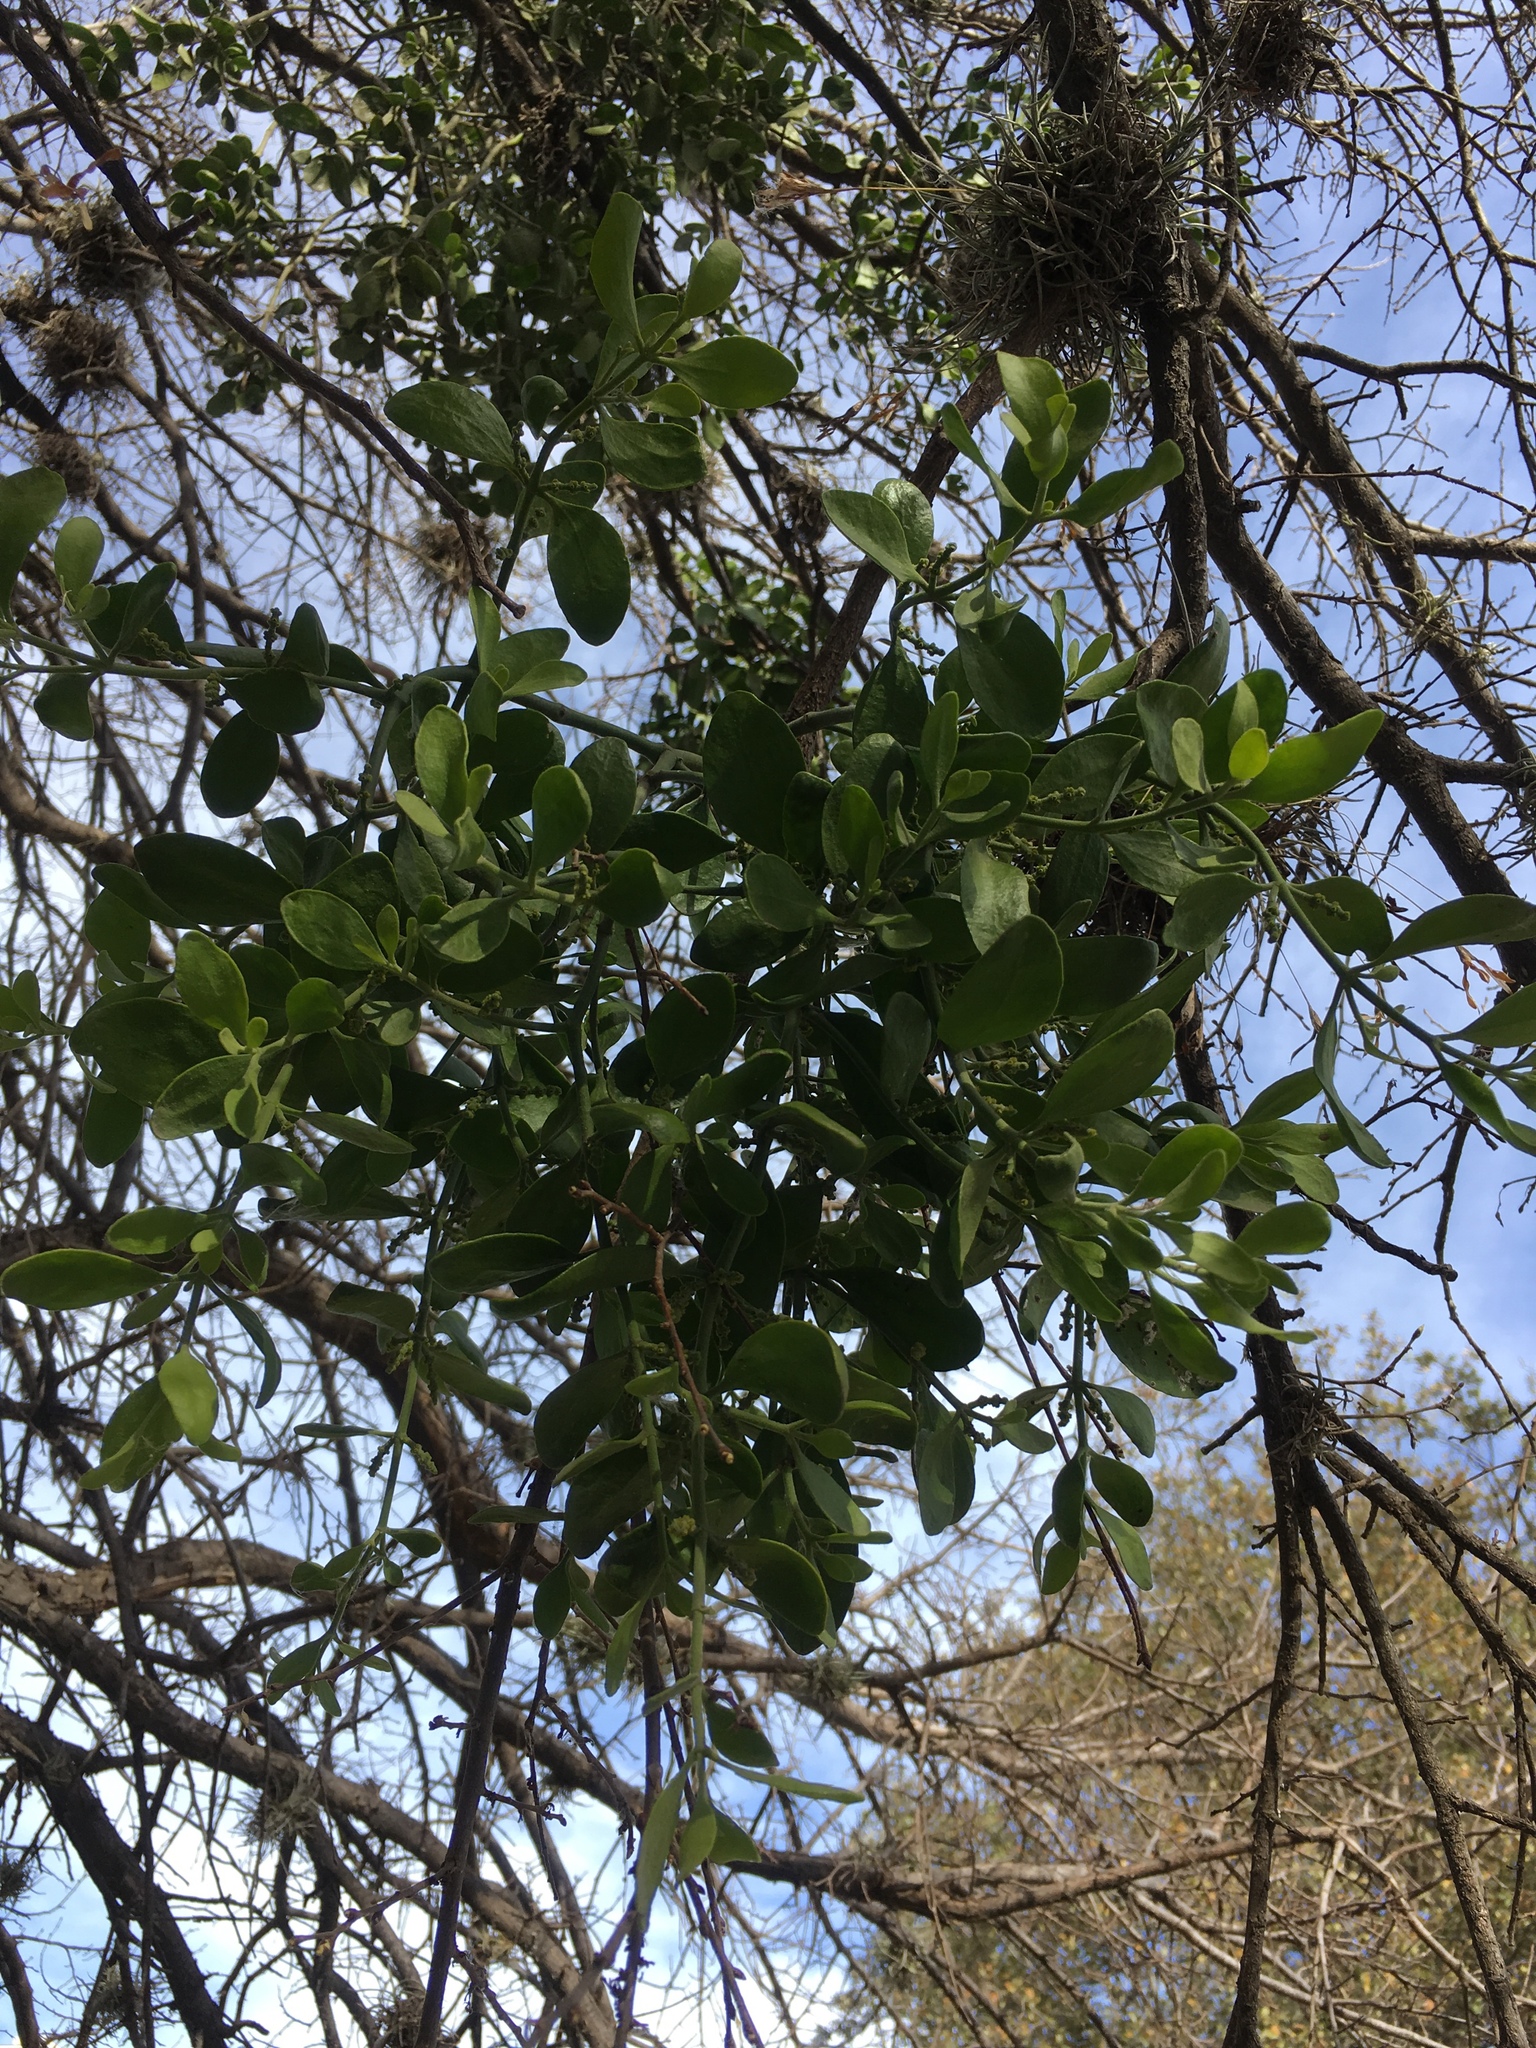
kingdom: Plantae
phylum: Tracheophyta
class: Magnoliopsida
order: Santalales
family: Viscaceae
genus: Phoradendron
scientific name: Phoradendron leucarpum
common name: Pacific mistletoe
